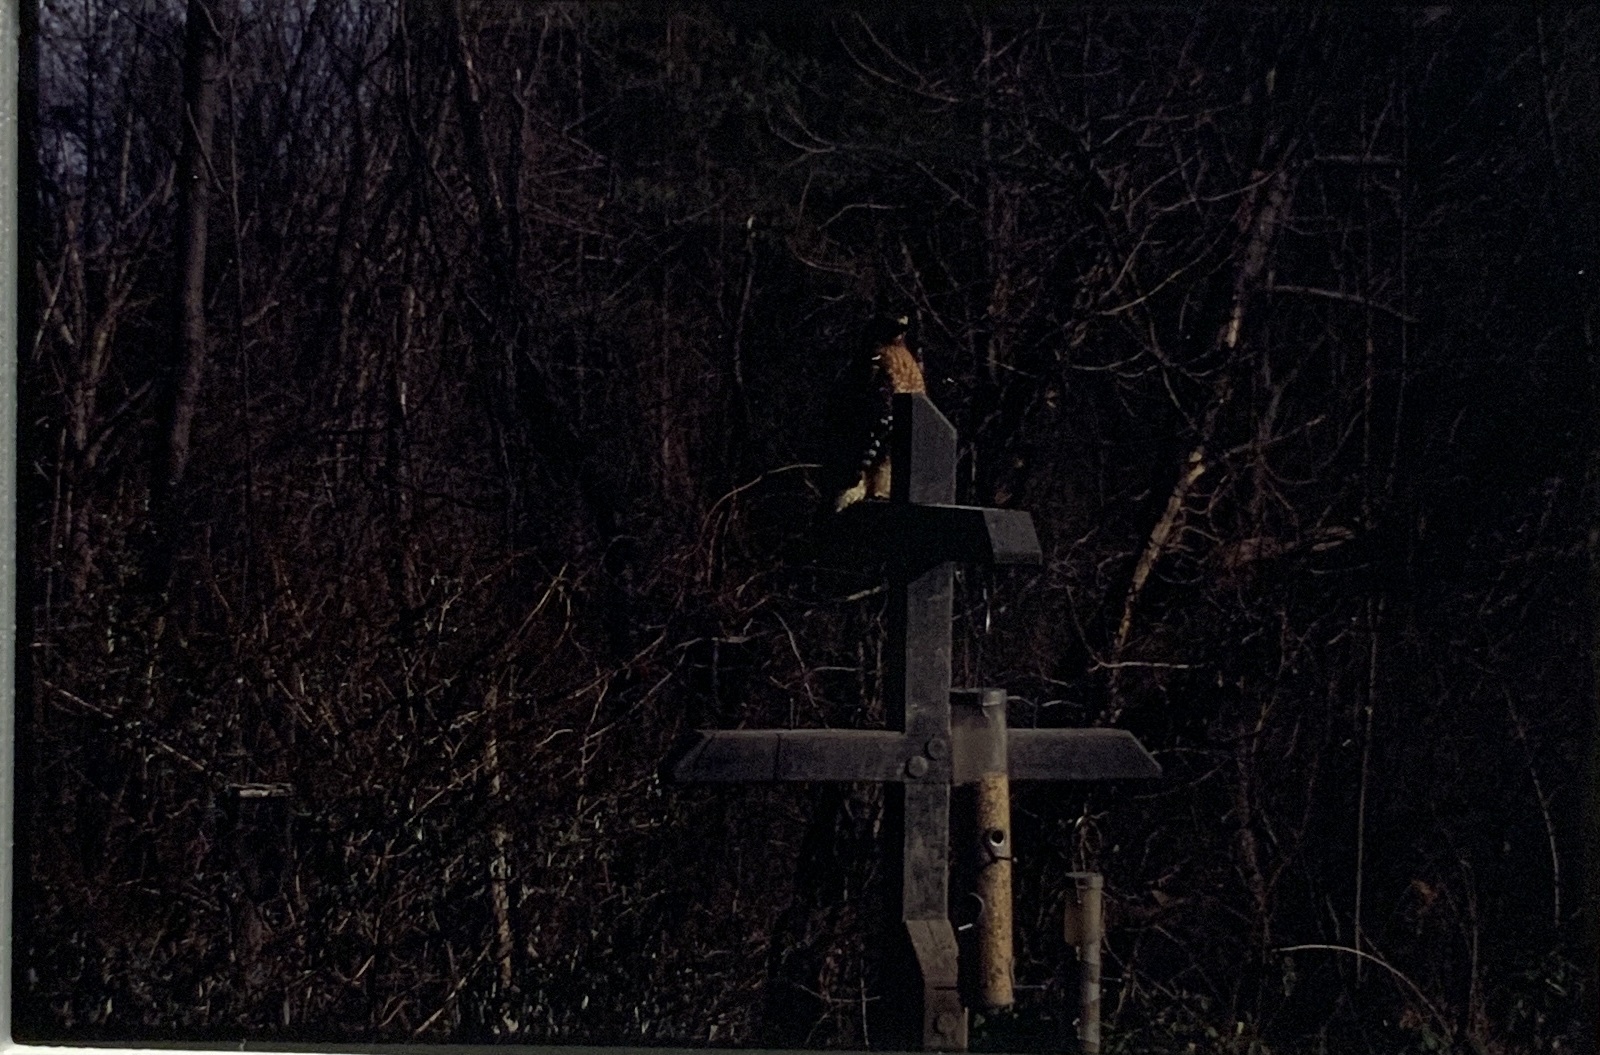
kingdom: Animalia
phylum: Chordata
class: Aves
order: Accipitriformes
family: Accipitridae
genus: Buteo
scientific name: Buteo lineatus
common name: Red-shouldered hawk
